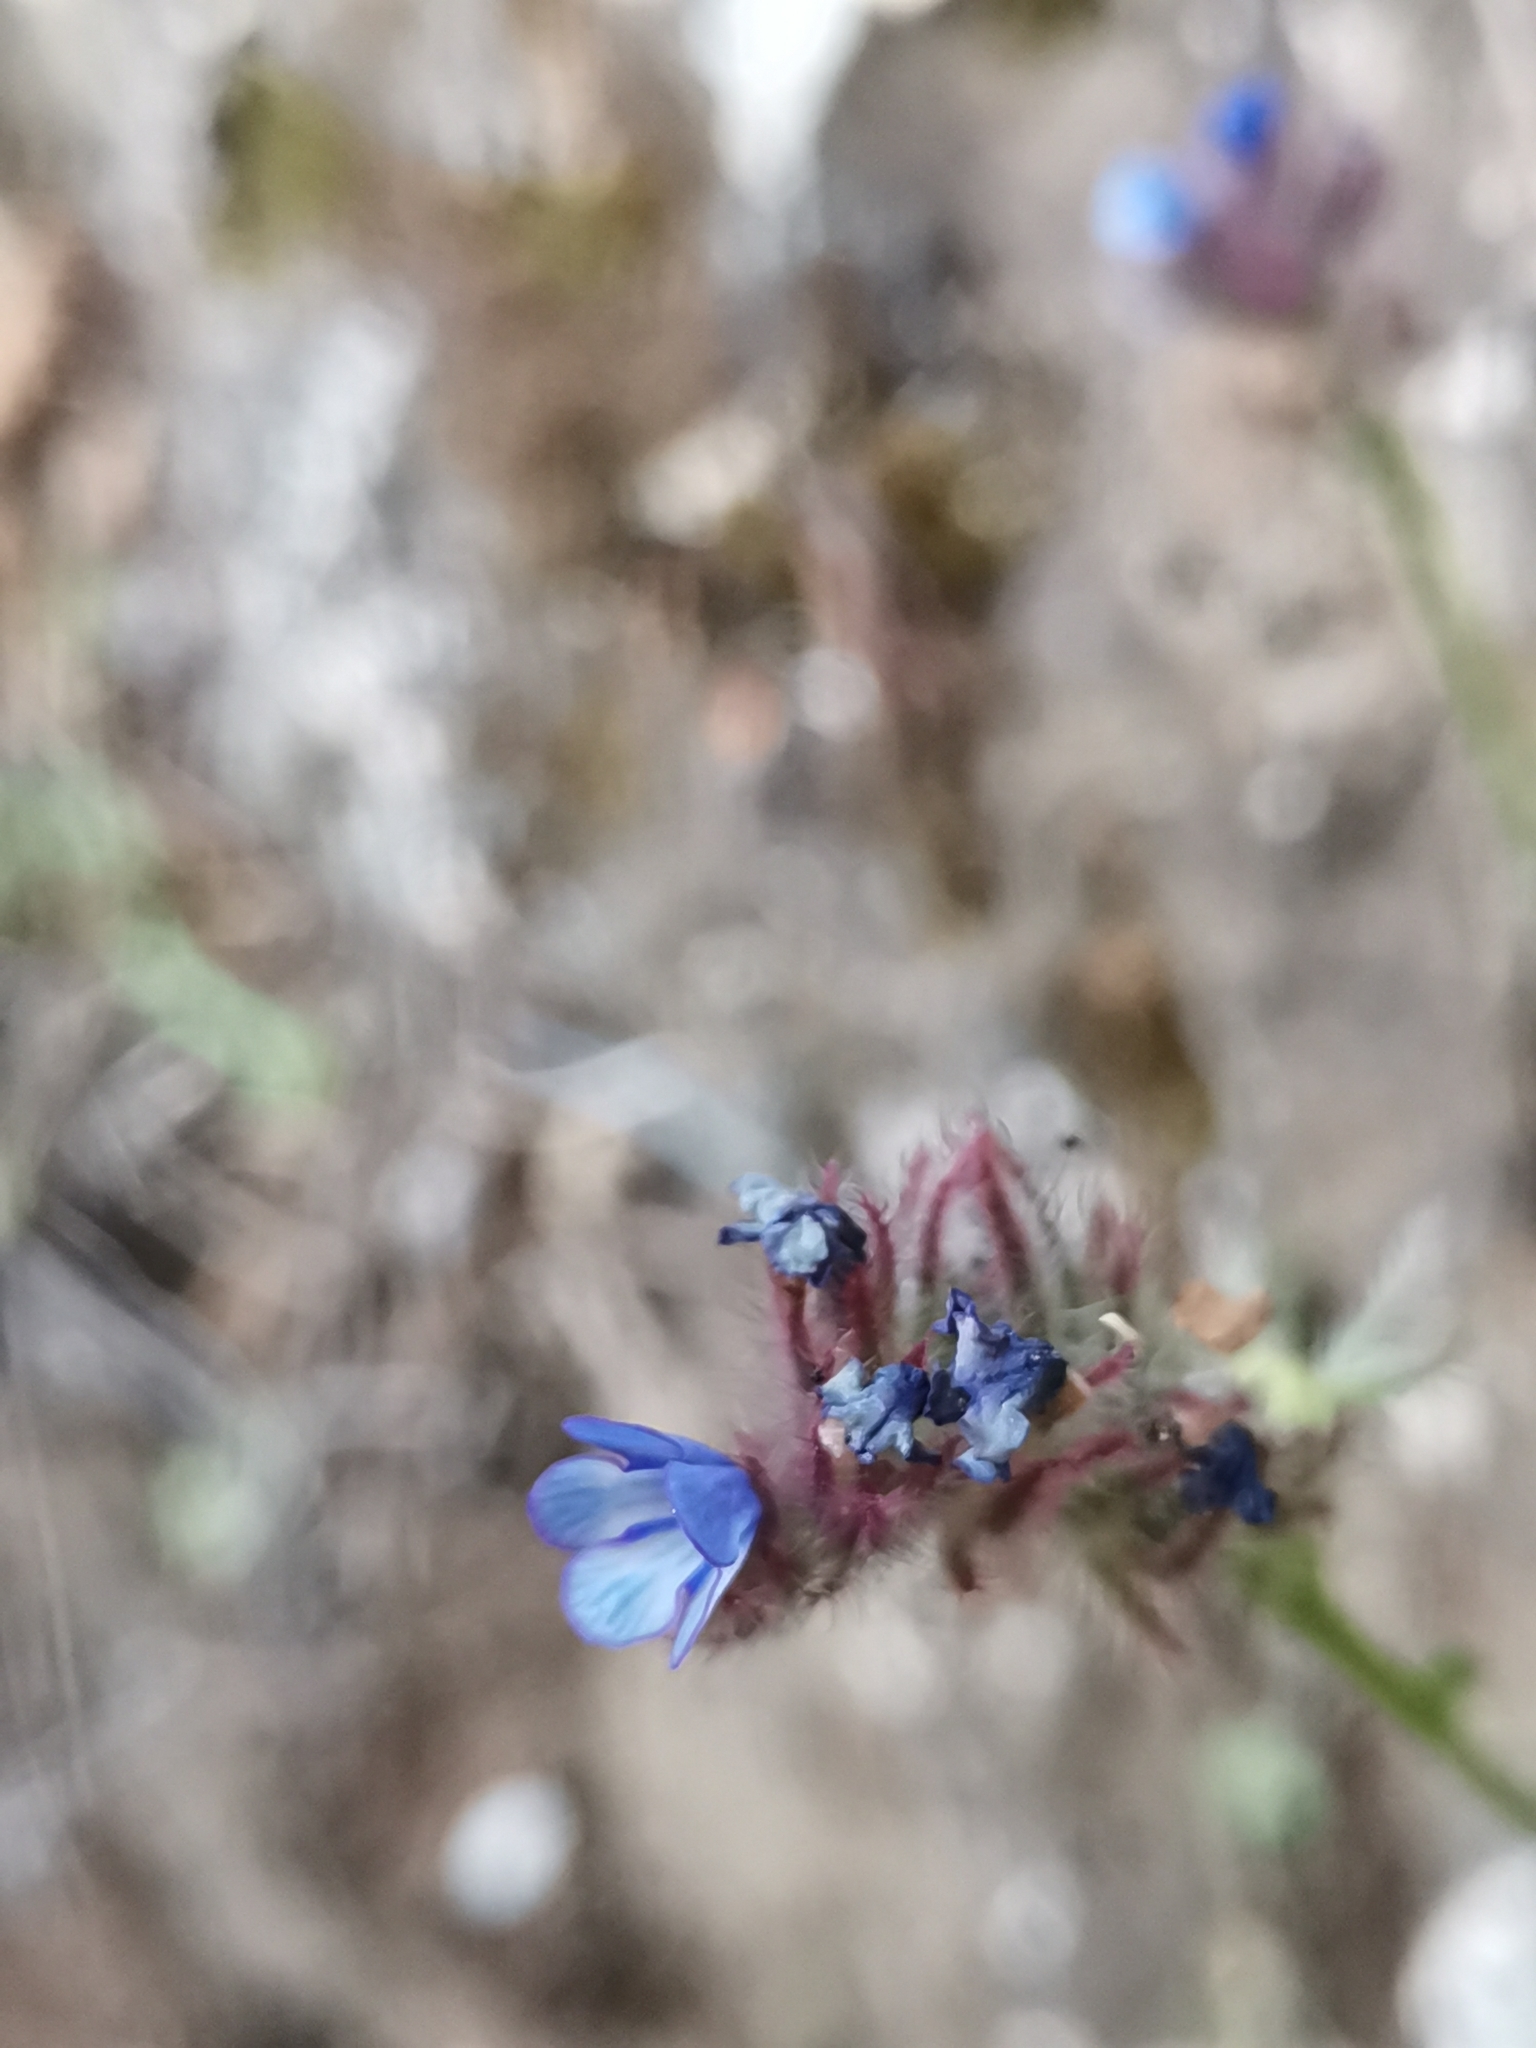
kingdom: Plantae
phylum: Tracheophyta
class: Magnoliopsida
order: Boraginales
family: Boraginaceae
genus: Anchusella
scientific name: Anchusella cretica
